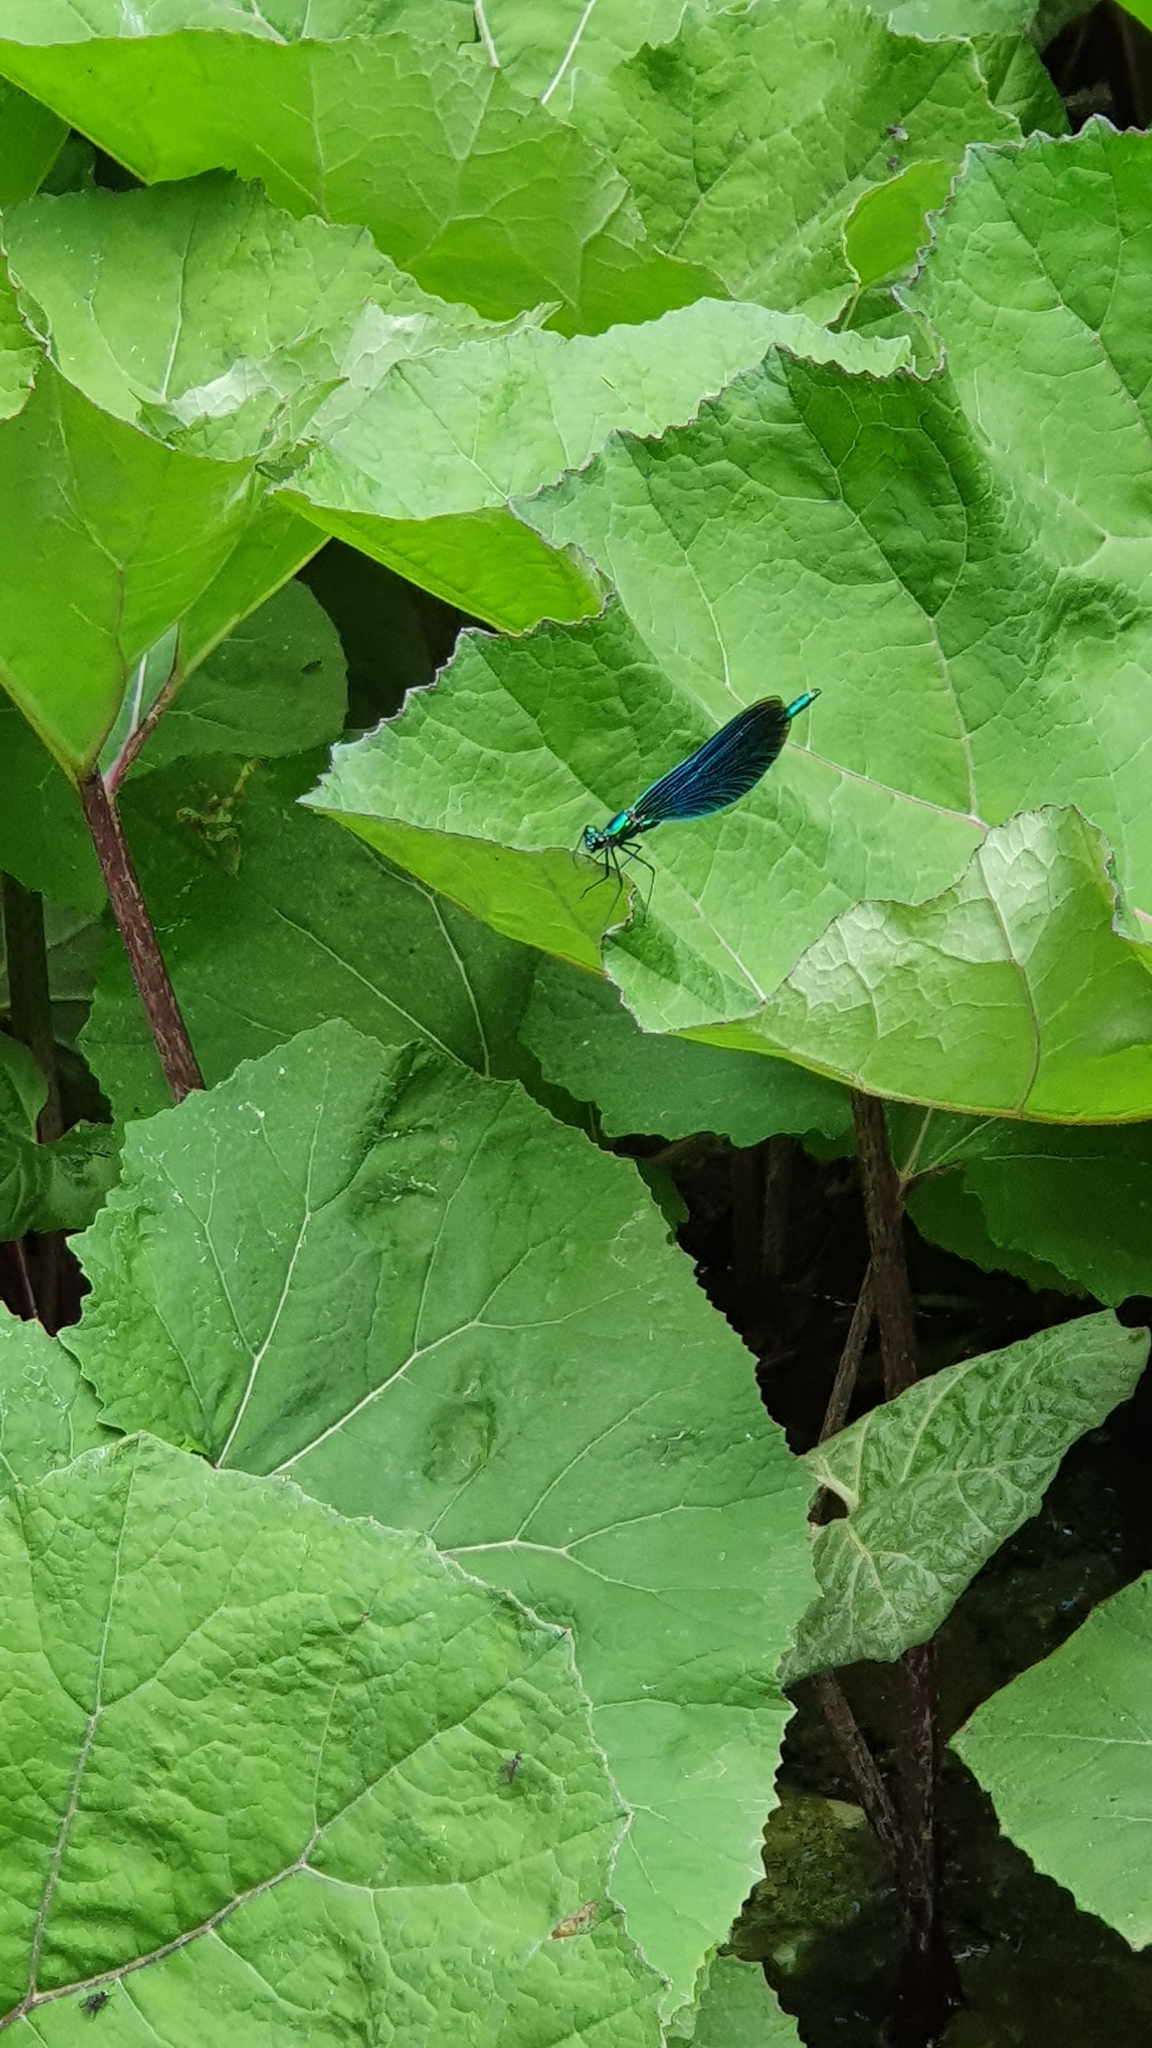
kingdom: Animalia
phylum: Arthropoda
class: Insecta
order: Odonata
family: Calopterygidae
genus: Calopteryx
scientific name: Calopteryx virgo
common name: Beautiful demoiselle
